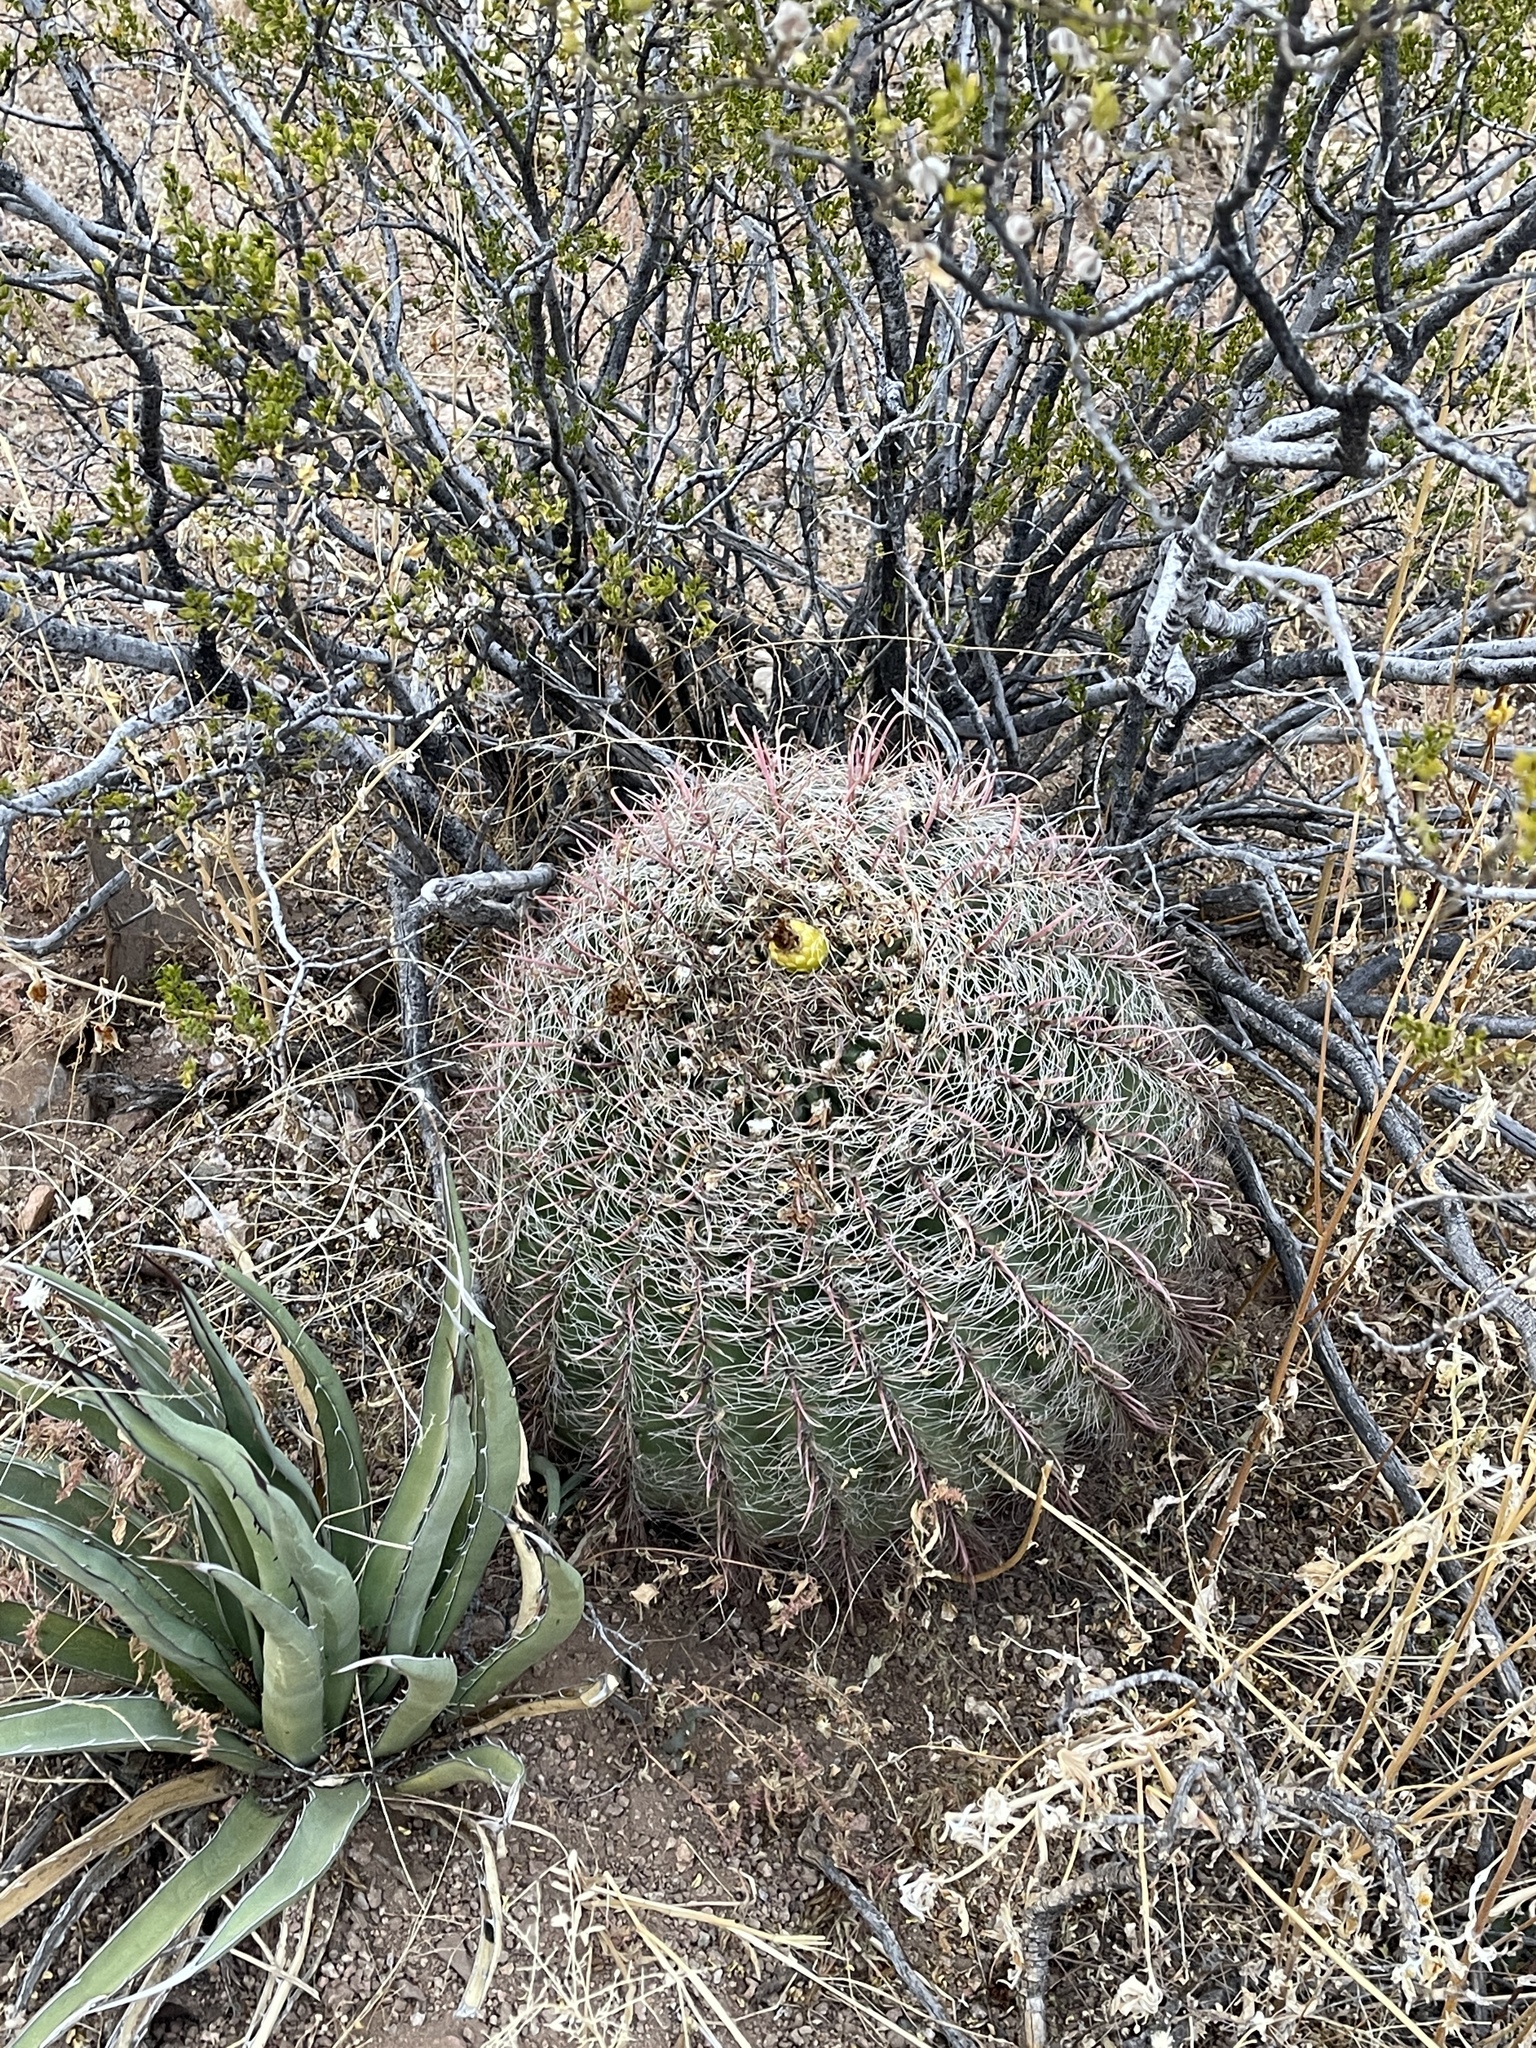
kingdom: Plantae
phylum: Tracheophyta
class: Magnoliopsida
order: Caryophyllales
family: Cactaceae
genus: Ferocactus
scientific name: Ferocactus wislizeni
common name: Candy barrel cactus
